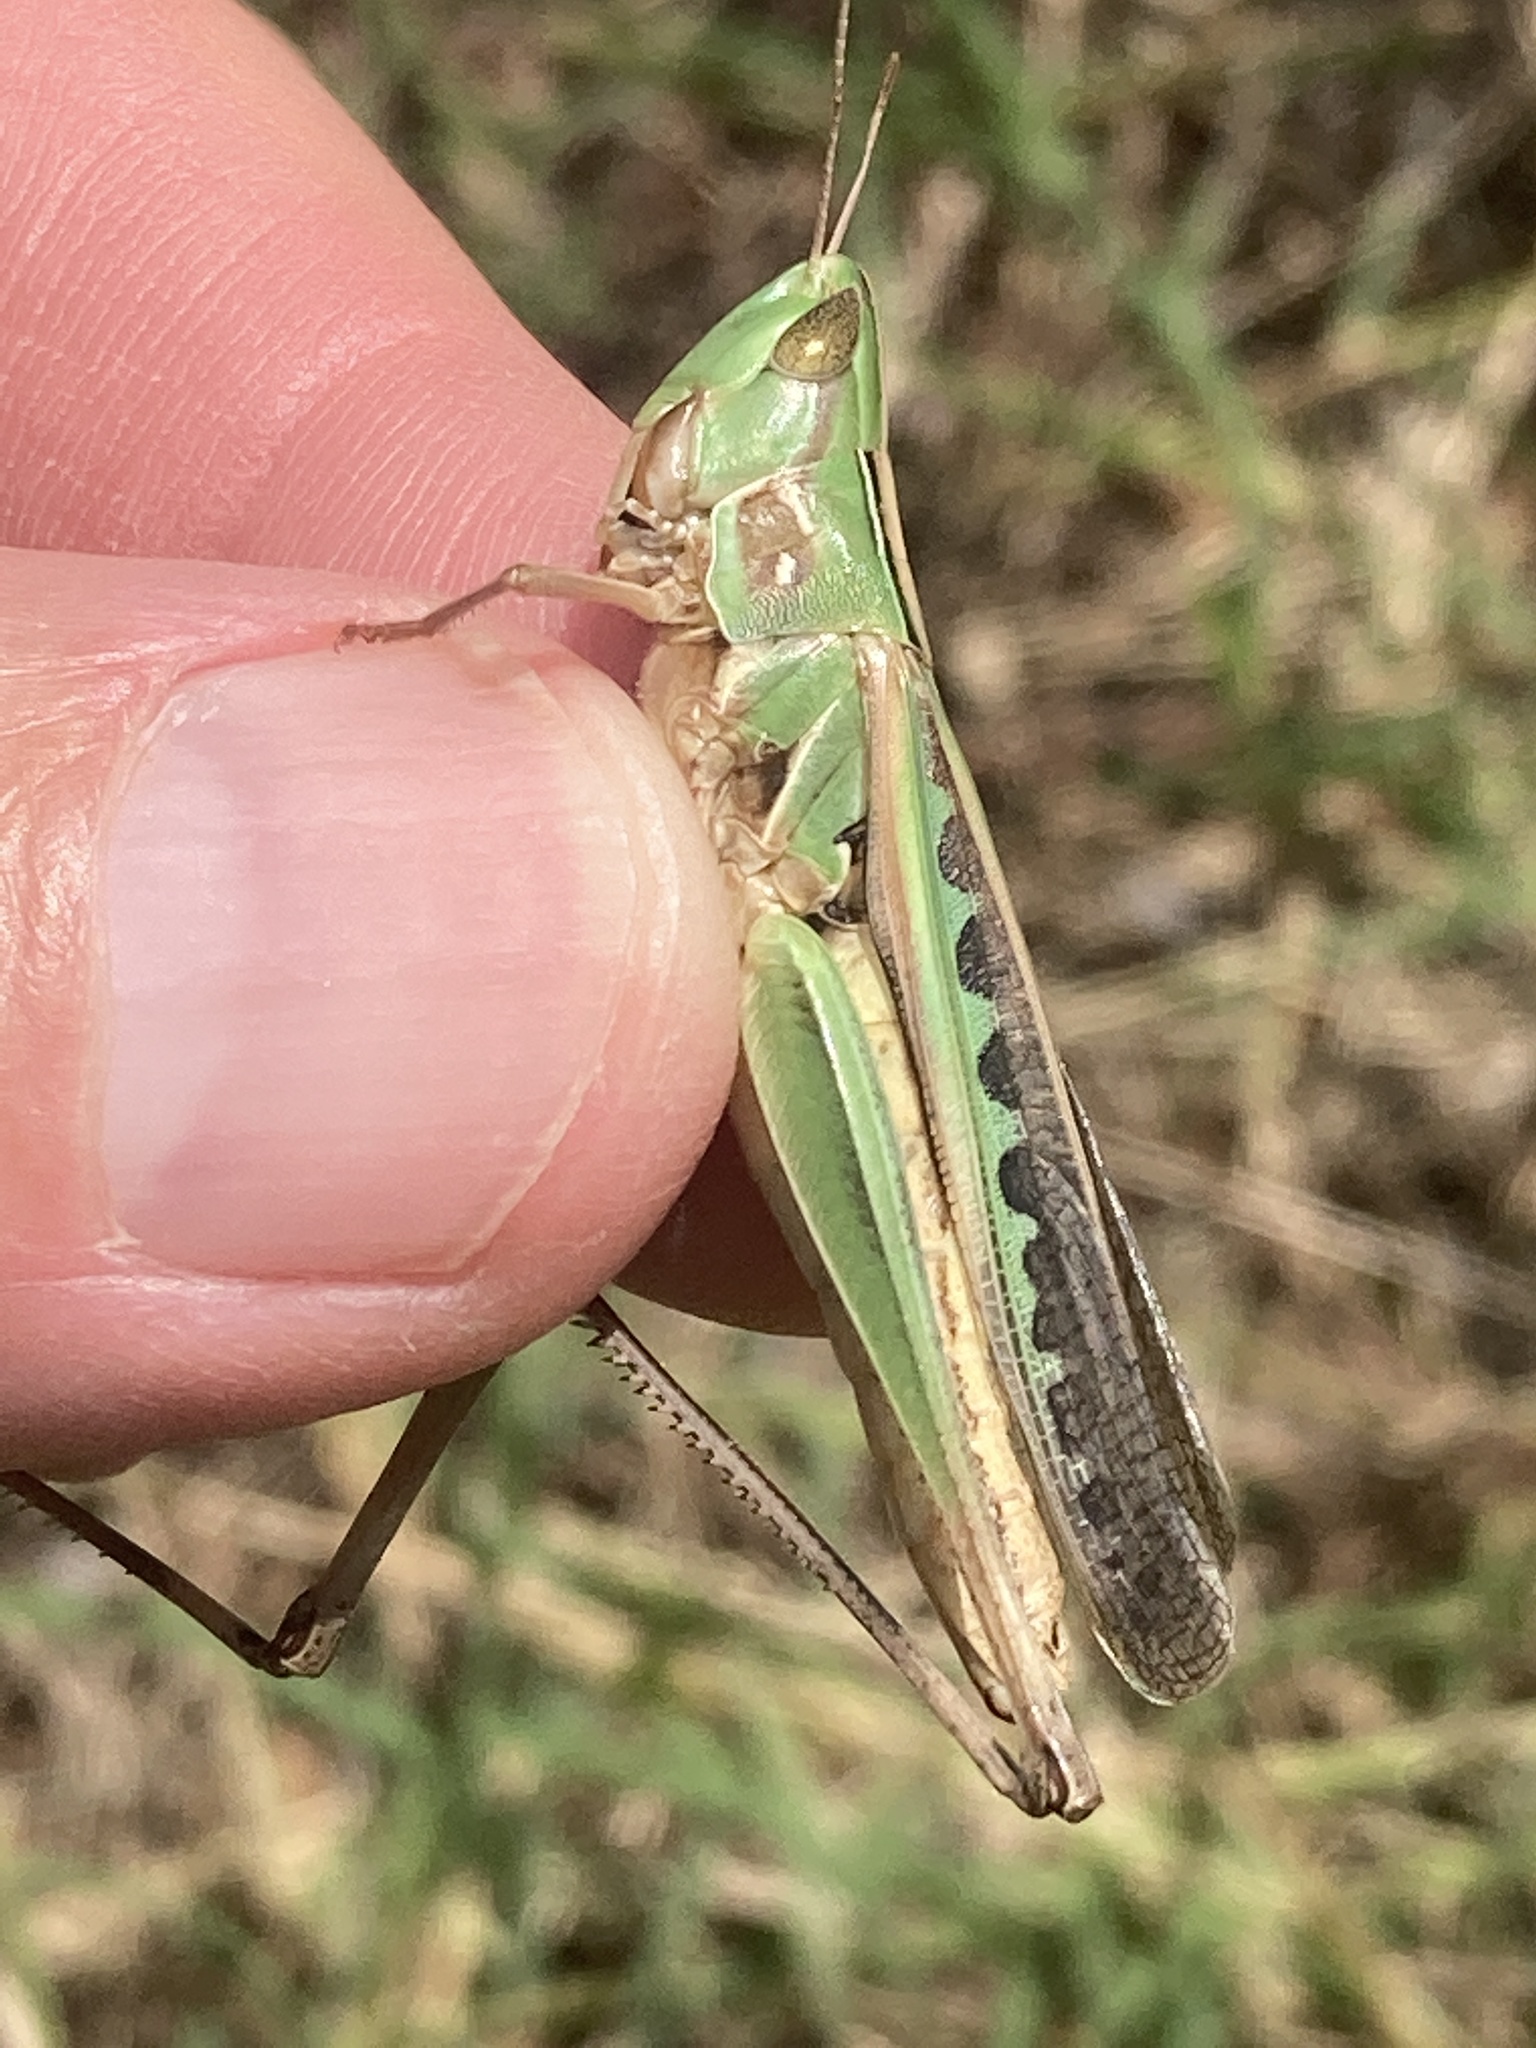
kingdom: Animalia
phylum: Arthropoda
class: Insecta
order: Orthoptera
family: Acrididae
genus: Syrbula
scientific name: Syrbula admirabilis
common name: Handsome grasshopper
